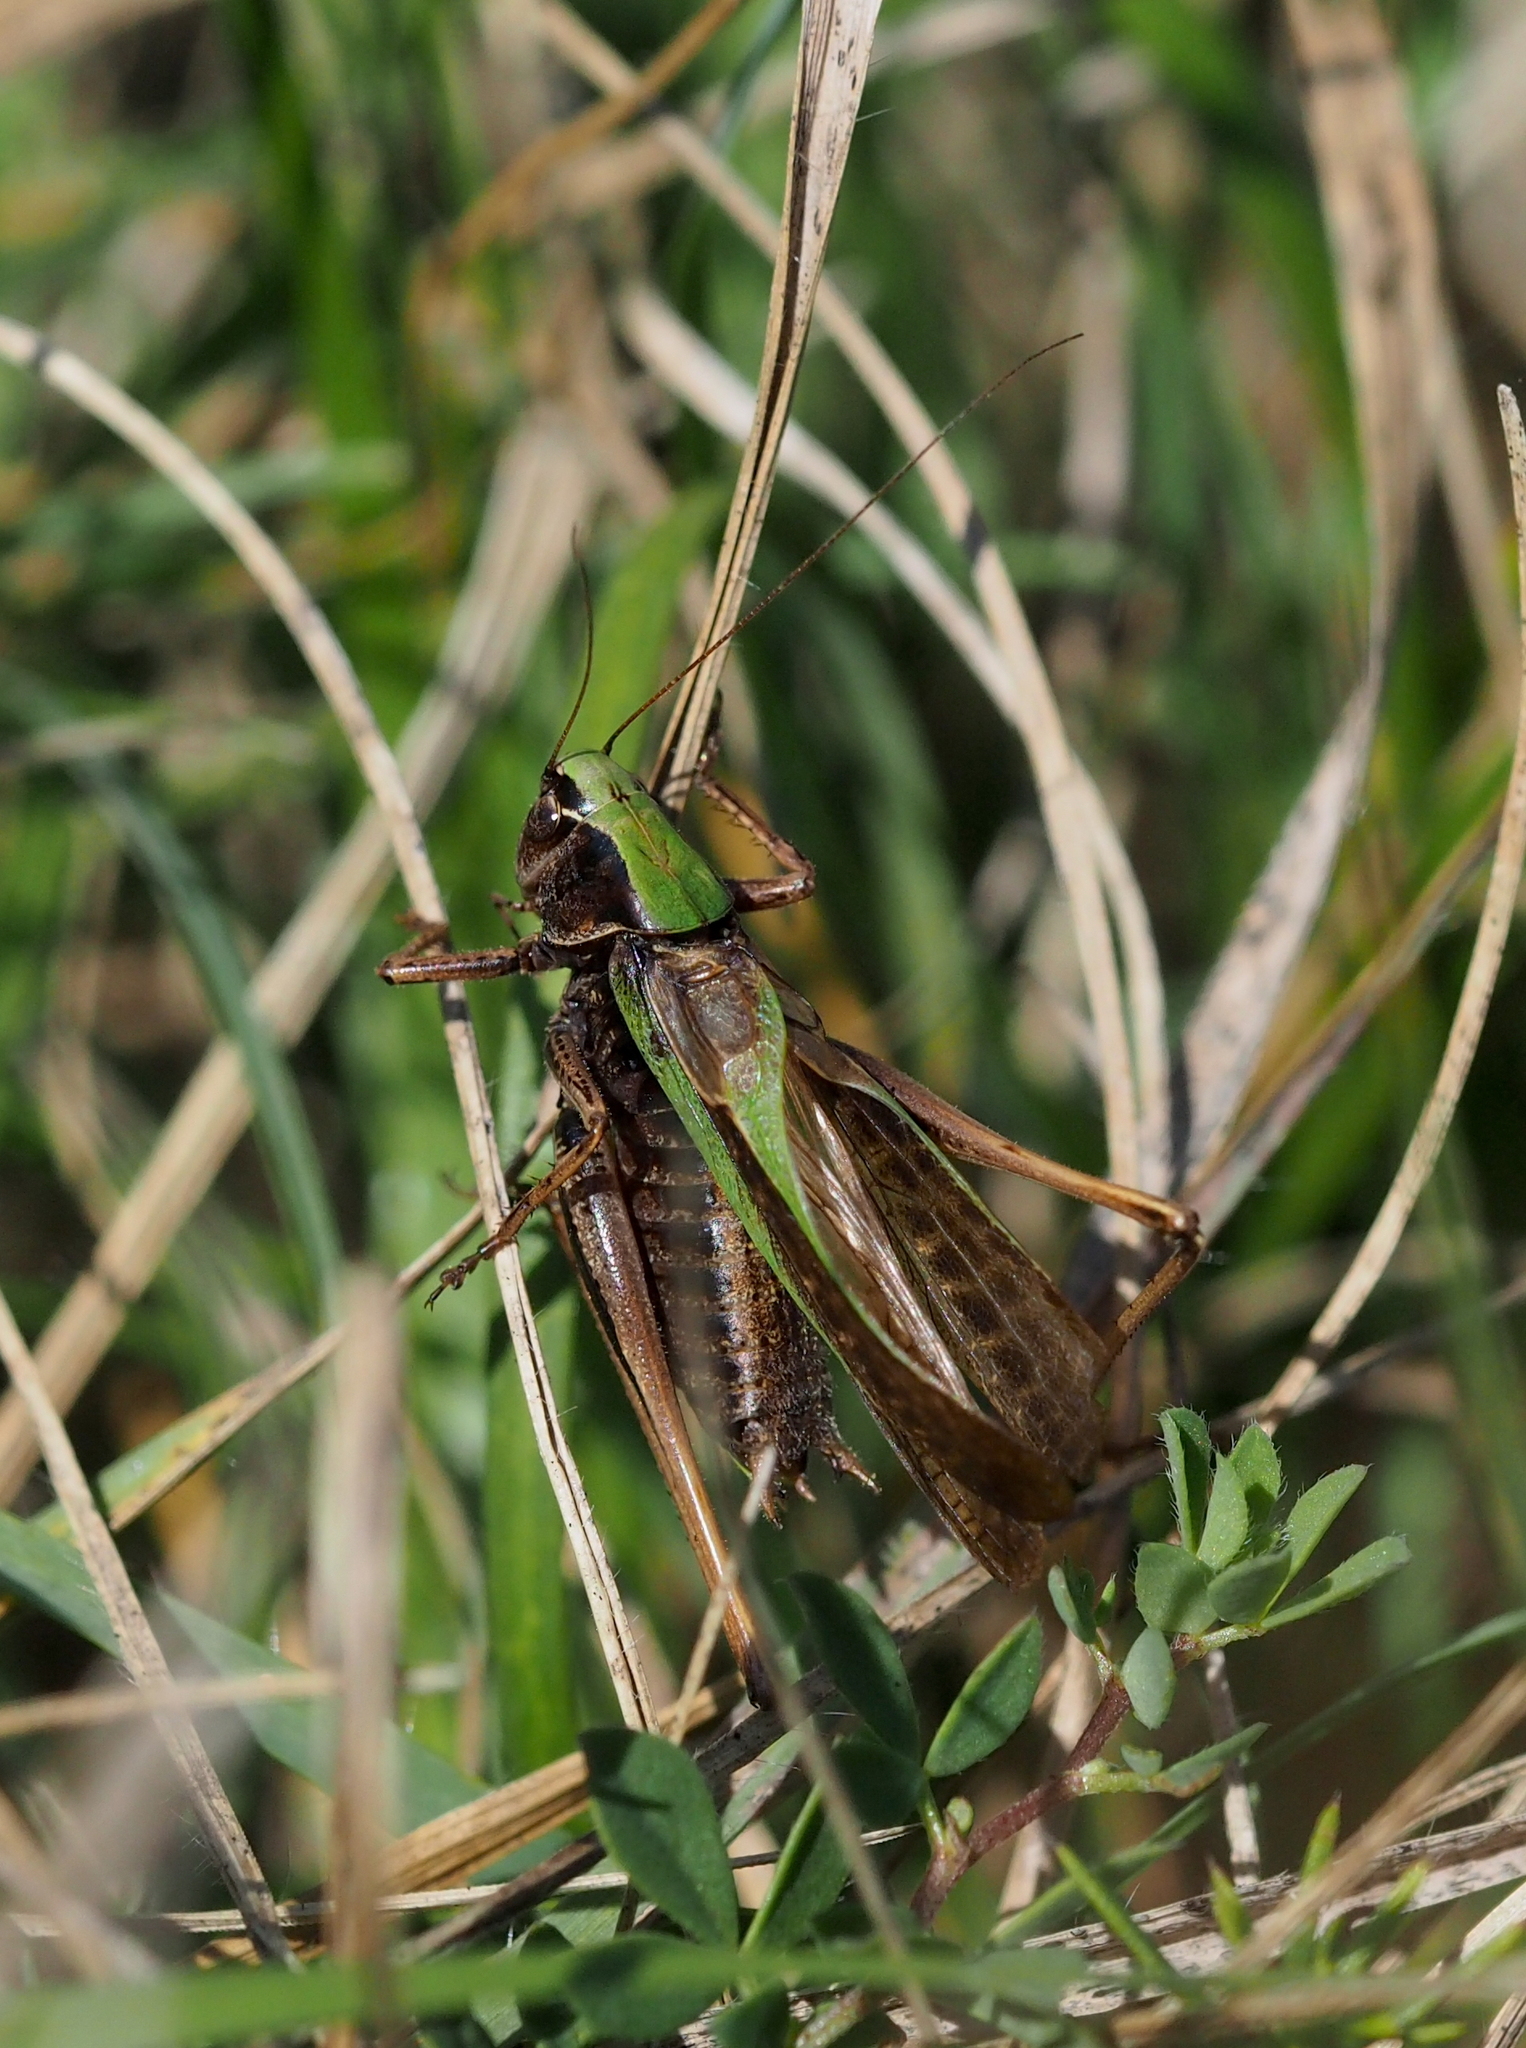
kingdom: Animalia
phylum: Arthropoda
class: Insecta
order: Orthoptera
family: Tettigoniidae
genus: Metrioptera
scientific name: Metrioptera brachyptera
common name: Bog bush-cricket
